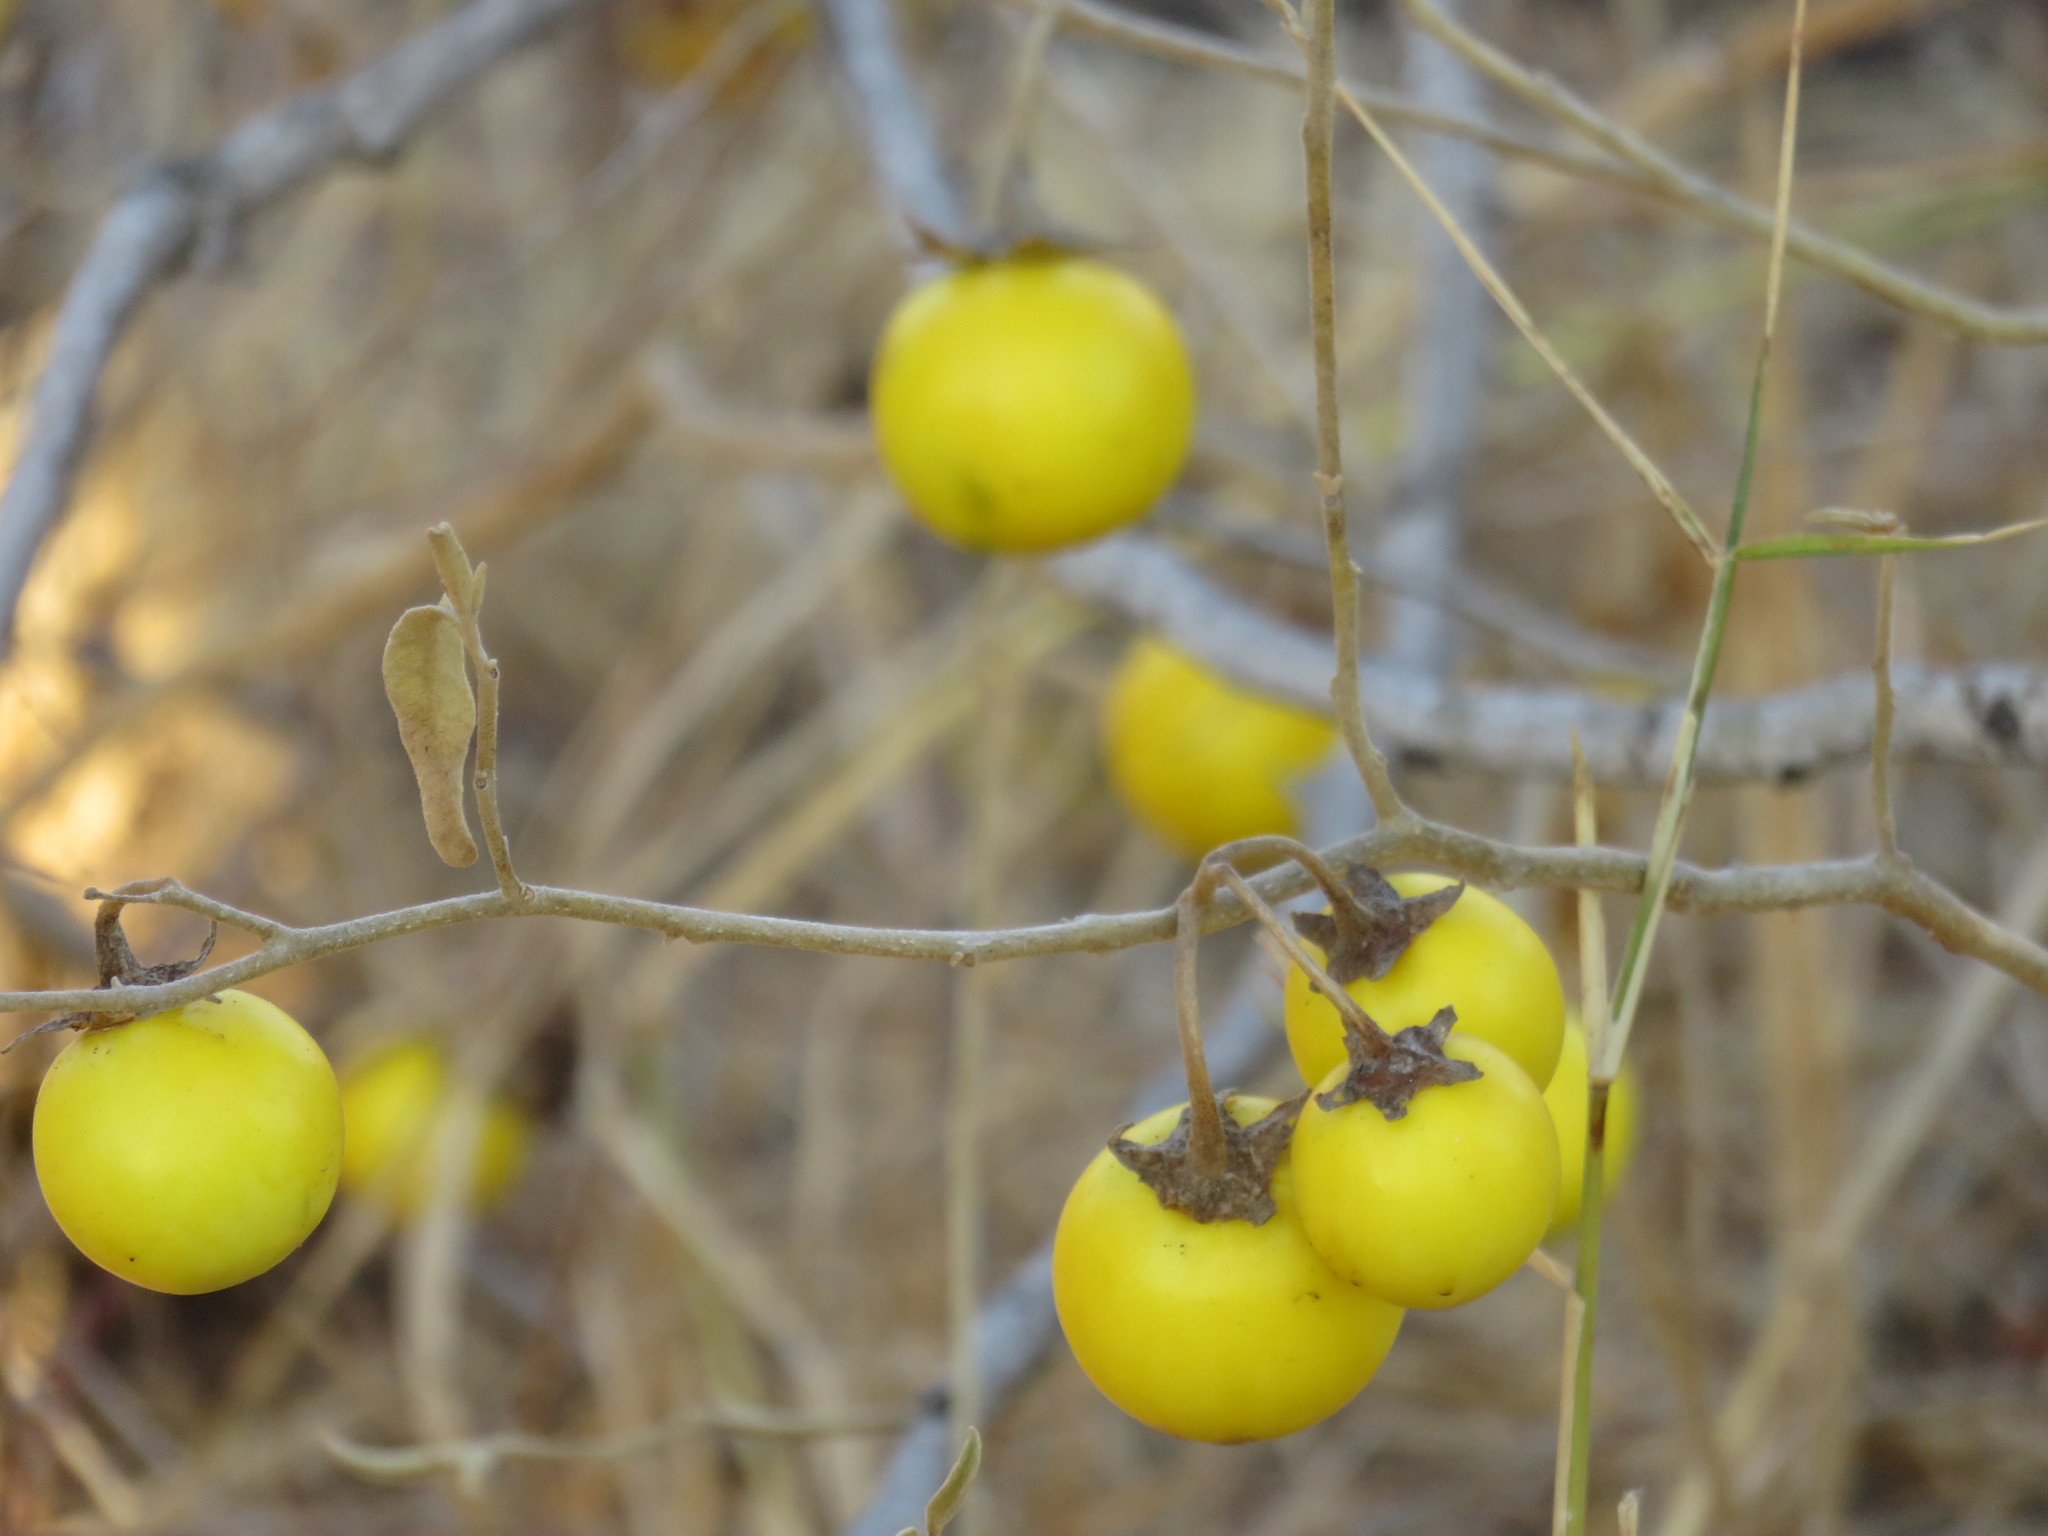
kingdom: Plantae
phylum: Tracheophyta
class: Magnoliopsida
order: Solanales
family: Solanaceae
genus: Solanum
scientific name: Solanum campylacanthum
